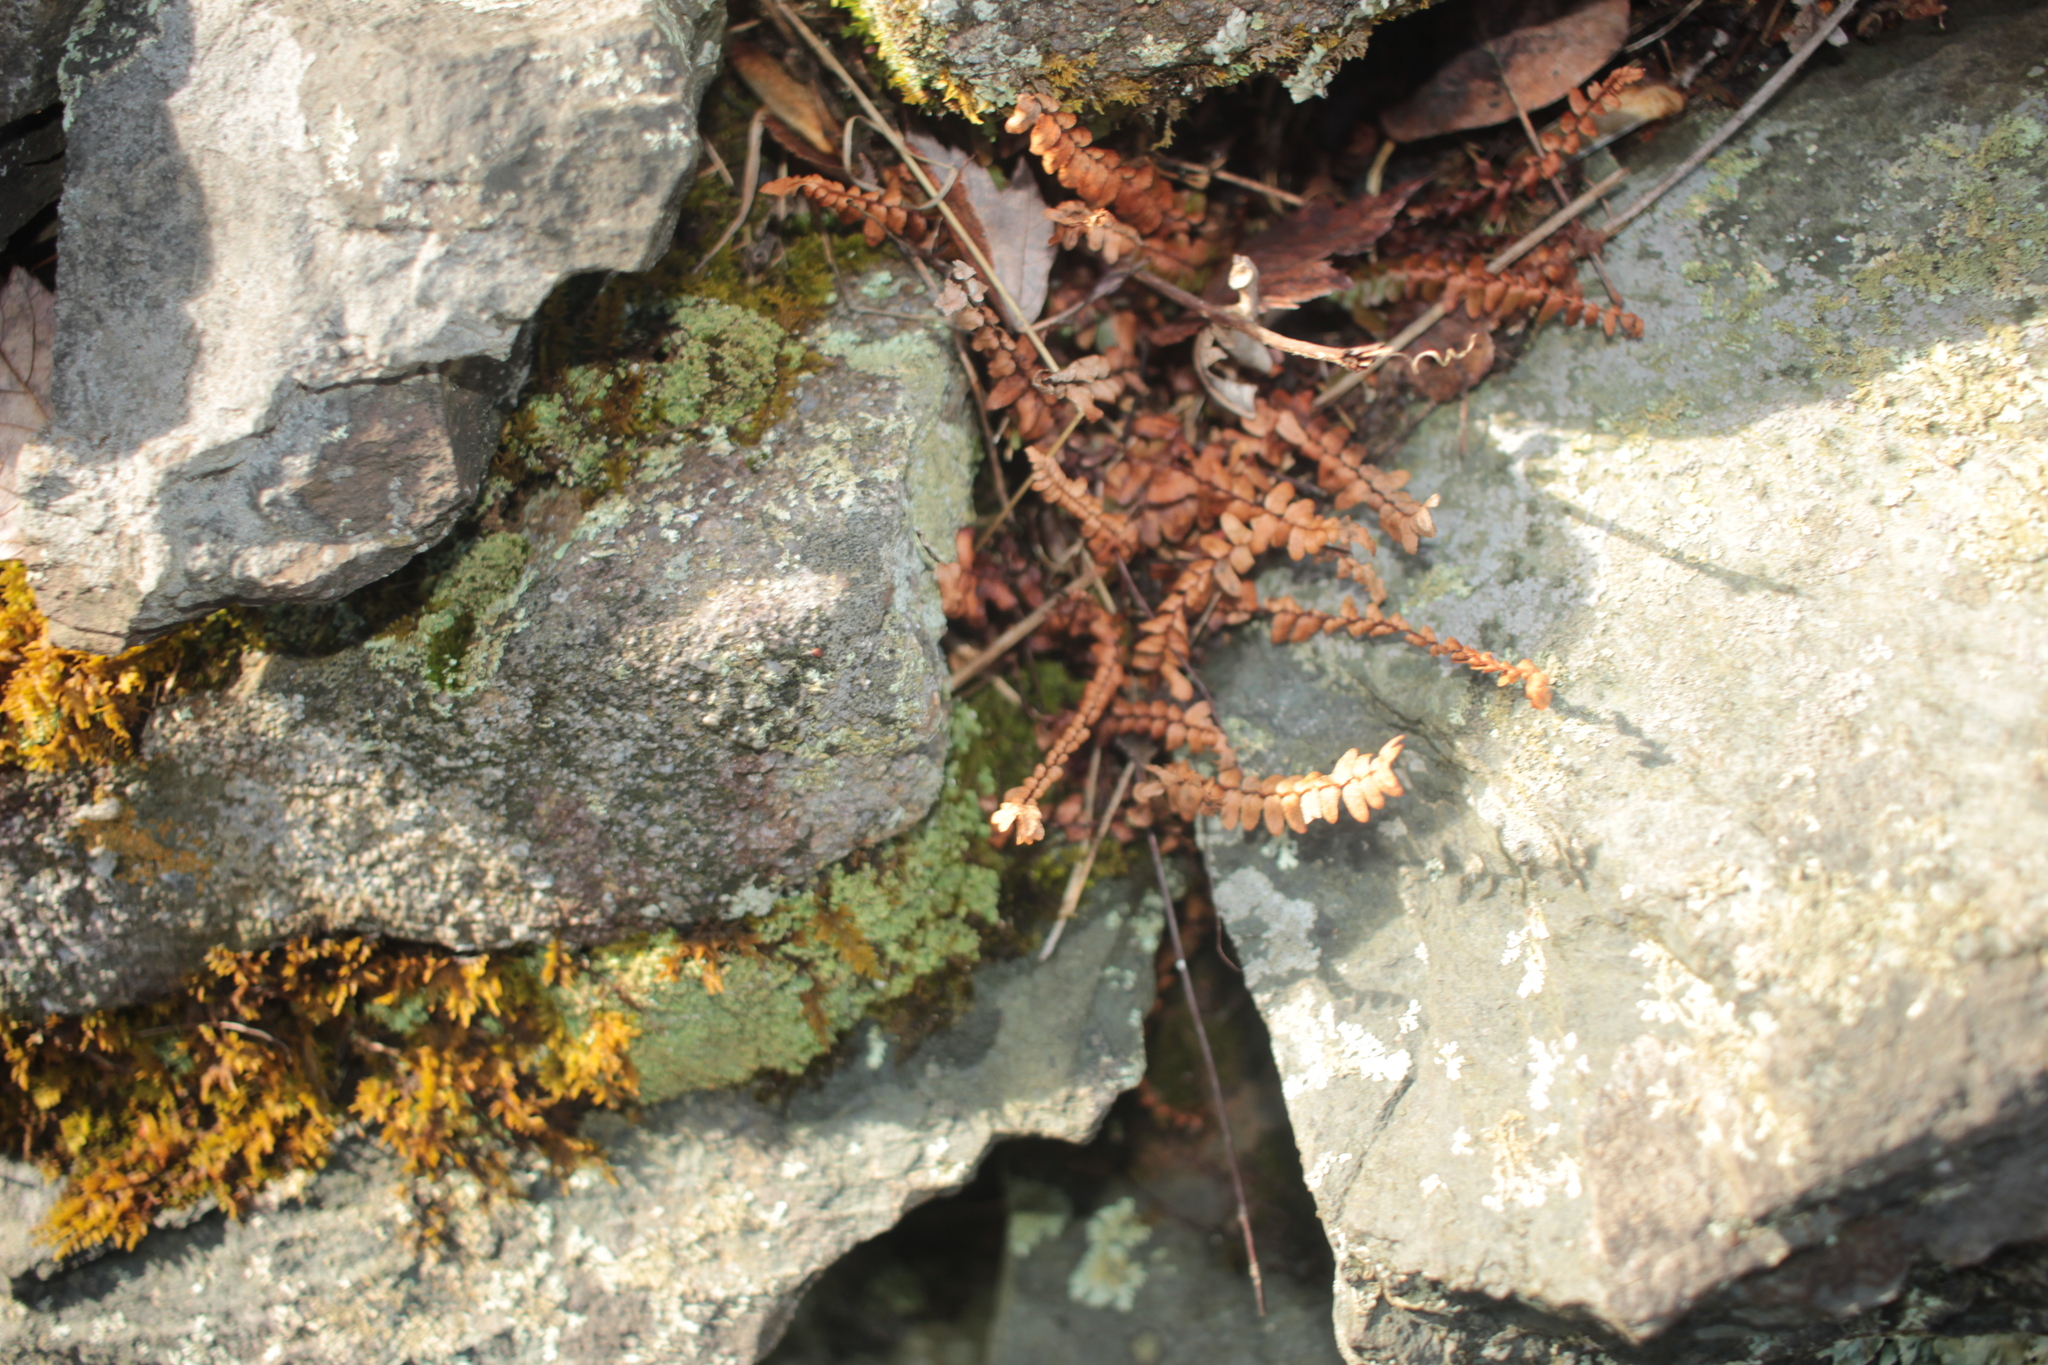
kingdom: Plantae
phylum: Tracheophyta
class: Polypodiopsida
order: Polypodiales
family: Aspleniaceae
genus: Asplenium
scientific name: Asplenium platyneuron
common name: Ebony spleenwort
